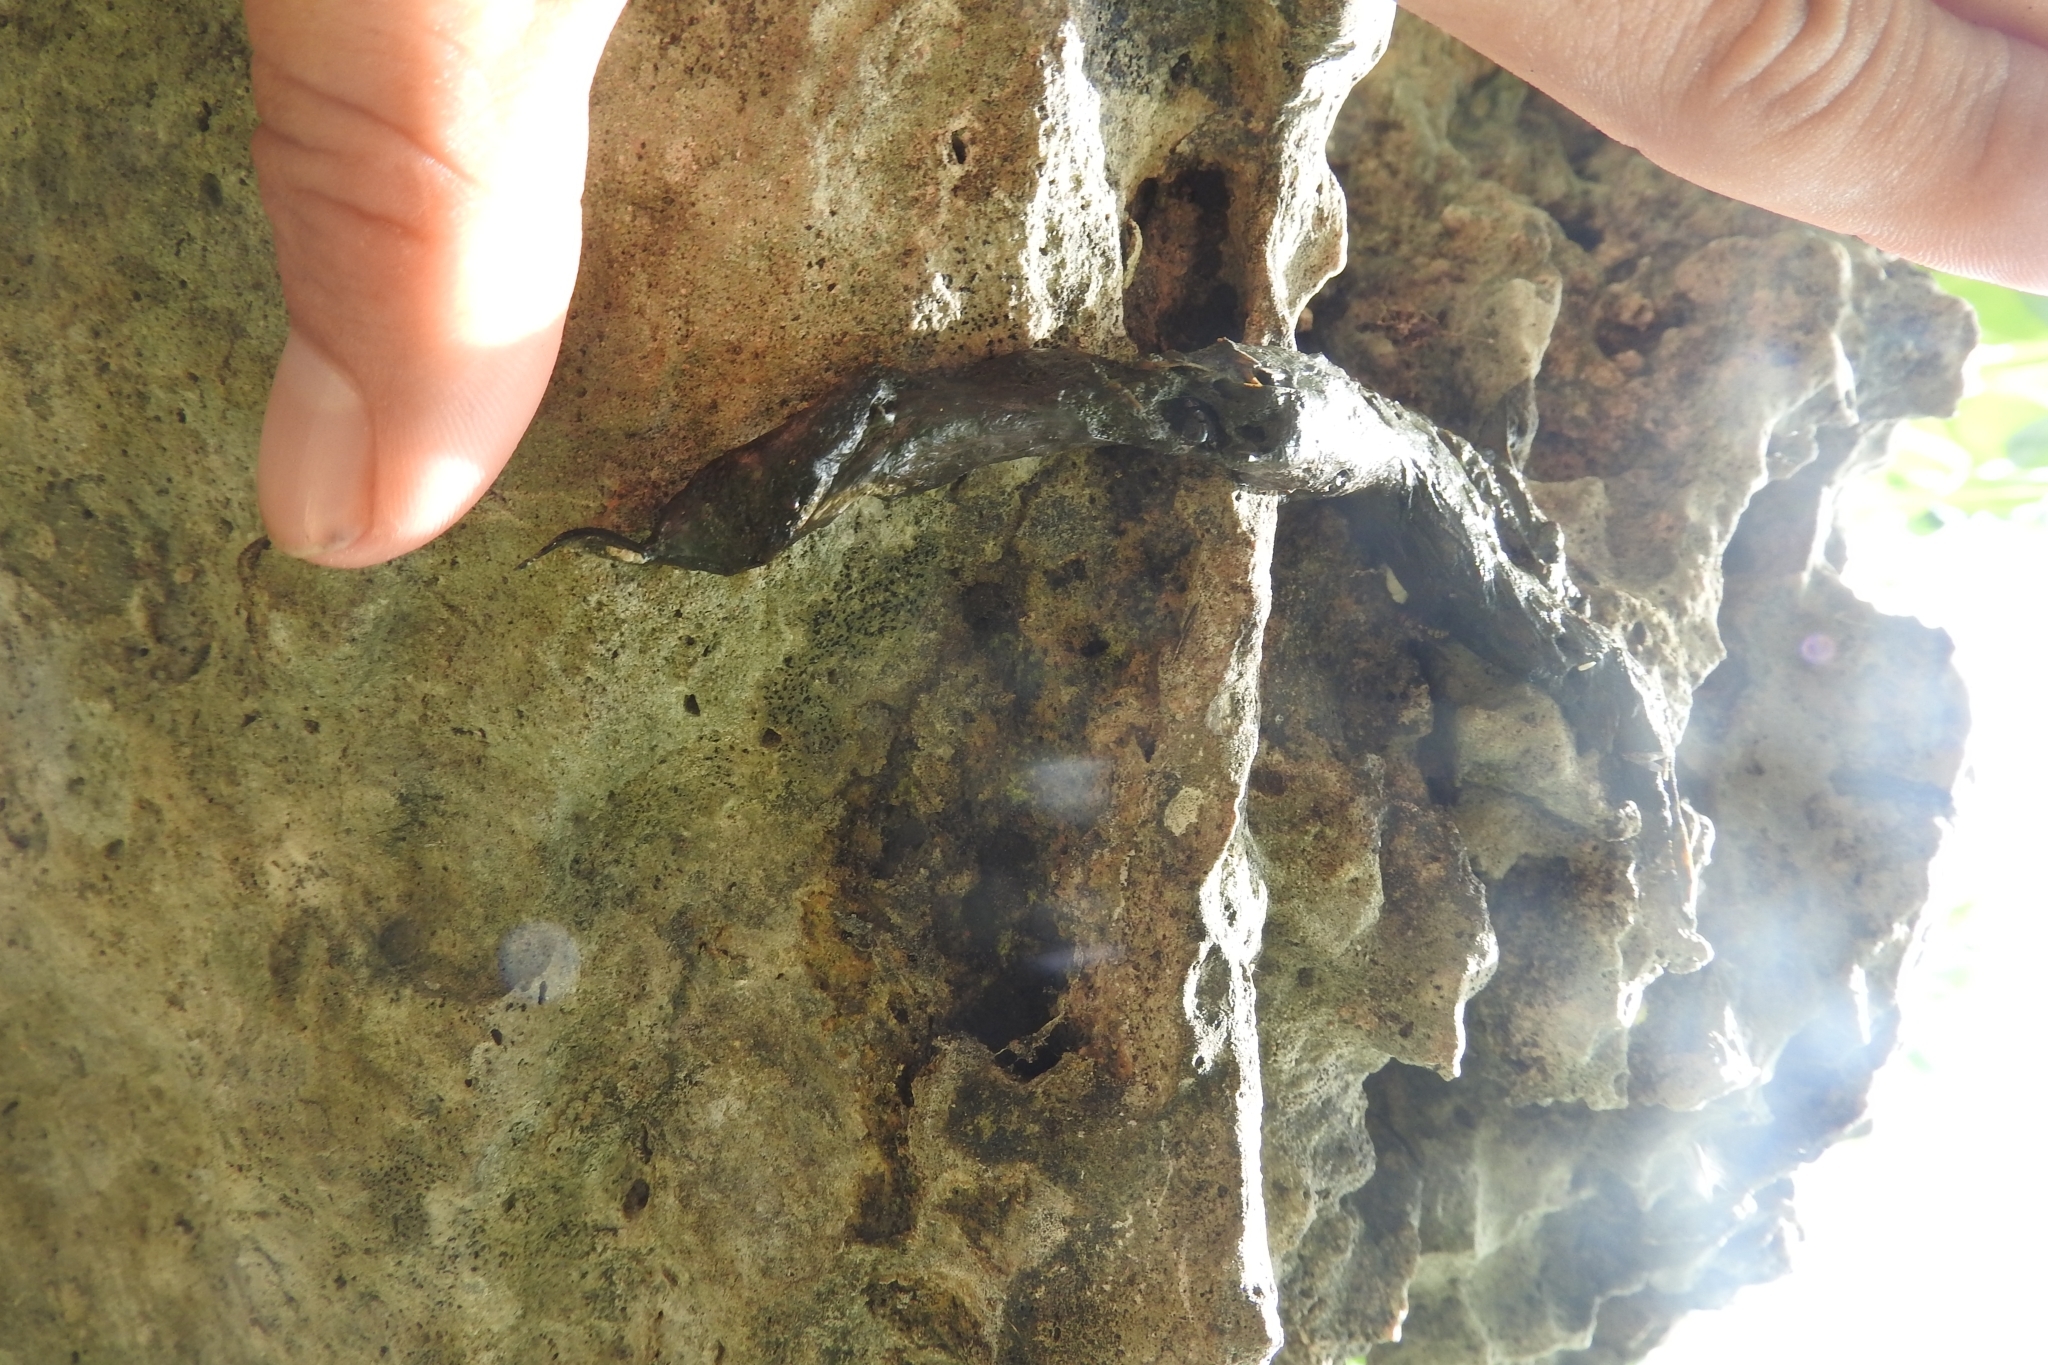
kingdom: Animalia
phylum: Chordata
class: Squamata
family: Iguanidae
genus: Ctenosaura
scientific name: Ctenosaura similis
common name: Black spiny-tailed iguana
